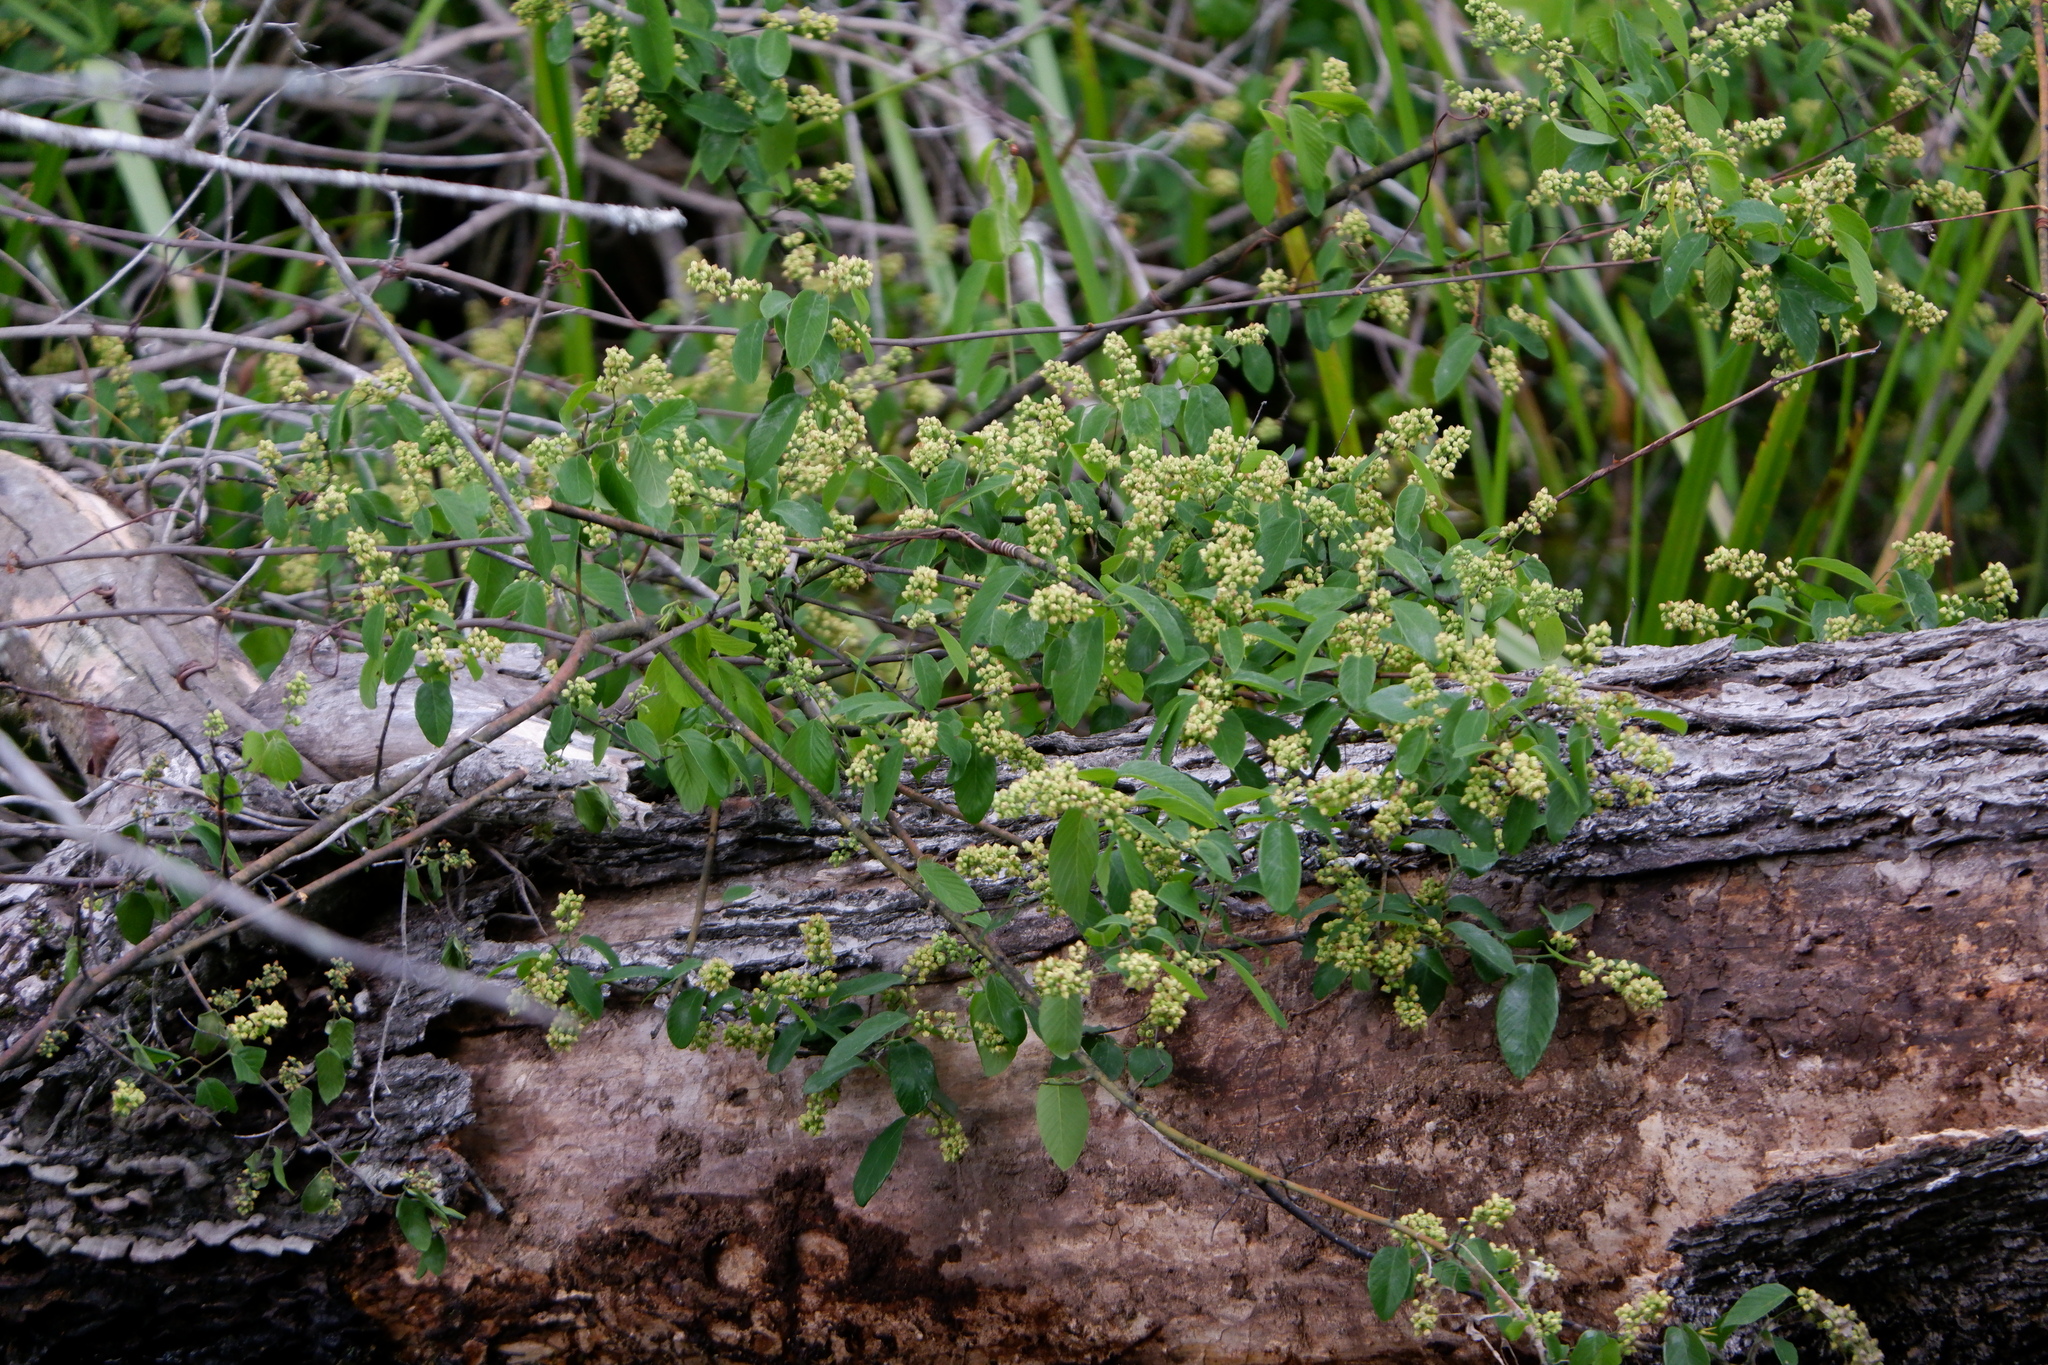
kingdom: Plantae
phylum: Tracheophyta
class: Magnoliopsida
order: Rosales
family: Rhamnaceae
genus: Berchemia
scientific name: Berchemia scandens
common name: Supplejack
